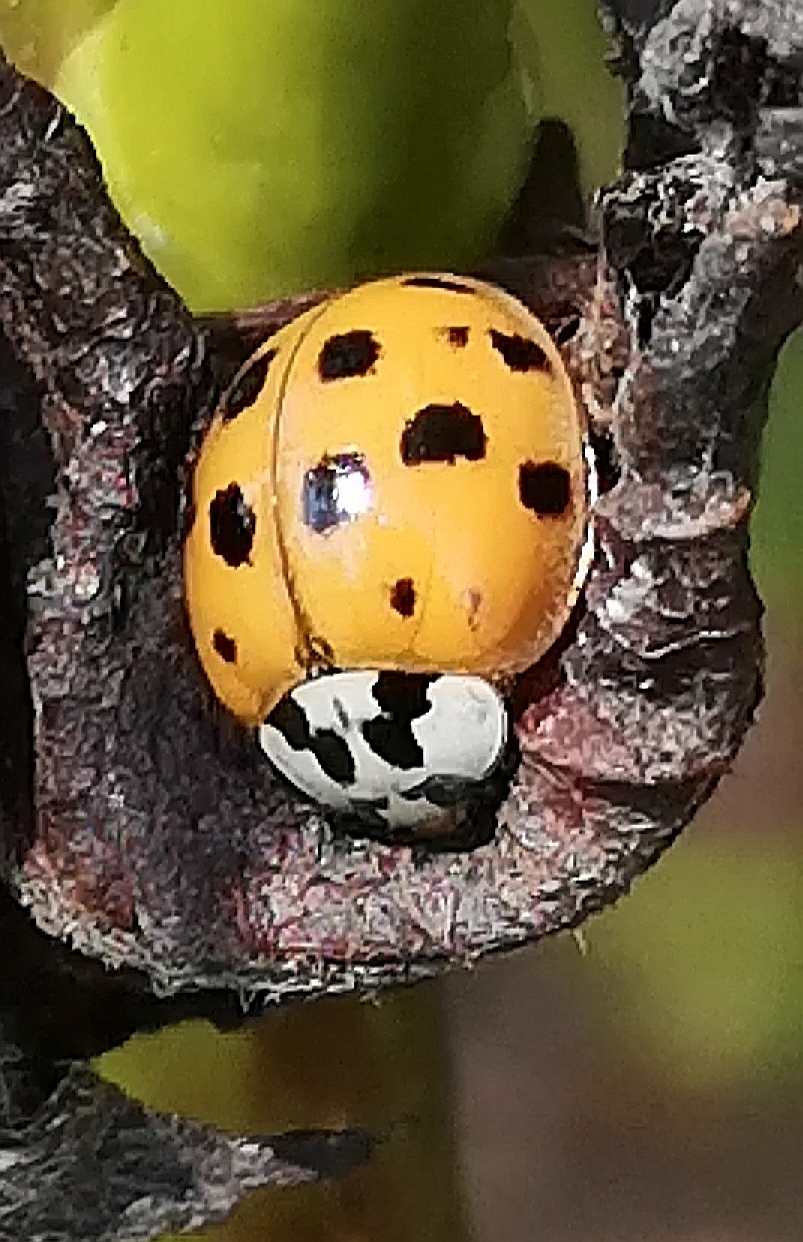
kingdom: Animalia
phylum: Arthropoda
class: Insecta
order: Coleoptera
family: Coccinellidae
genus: Harmonia
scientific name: Harmonia axyridis
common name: Harlequin ladybird
